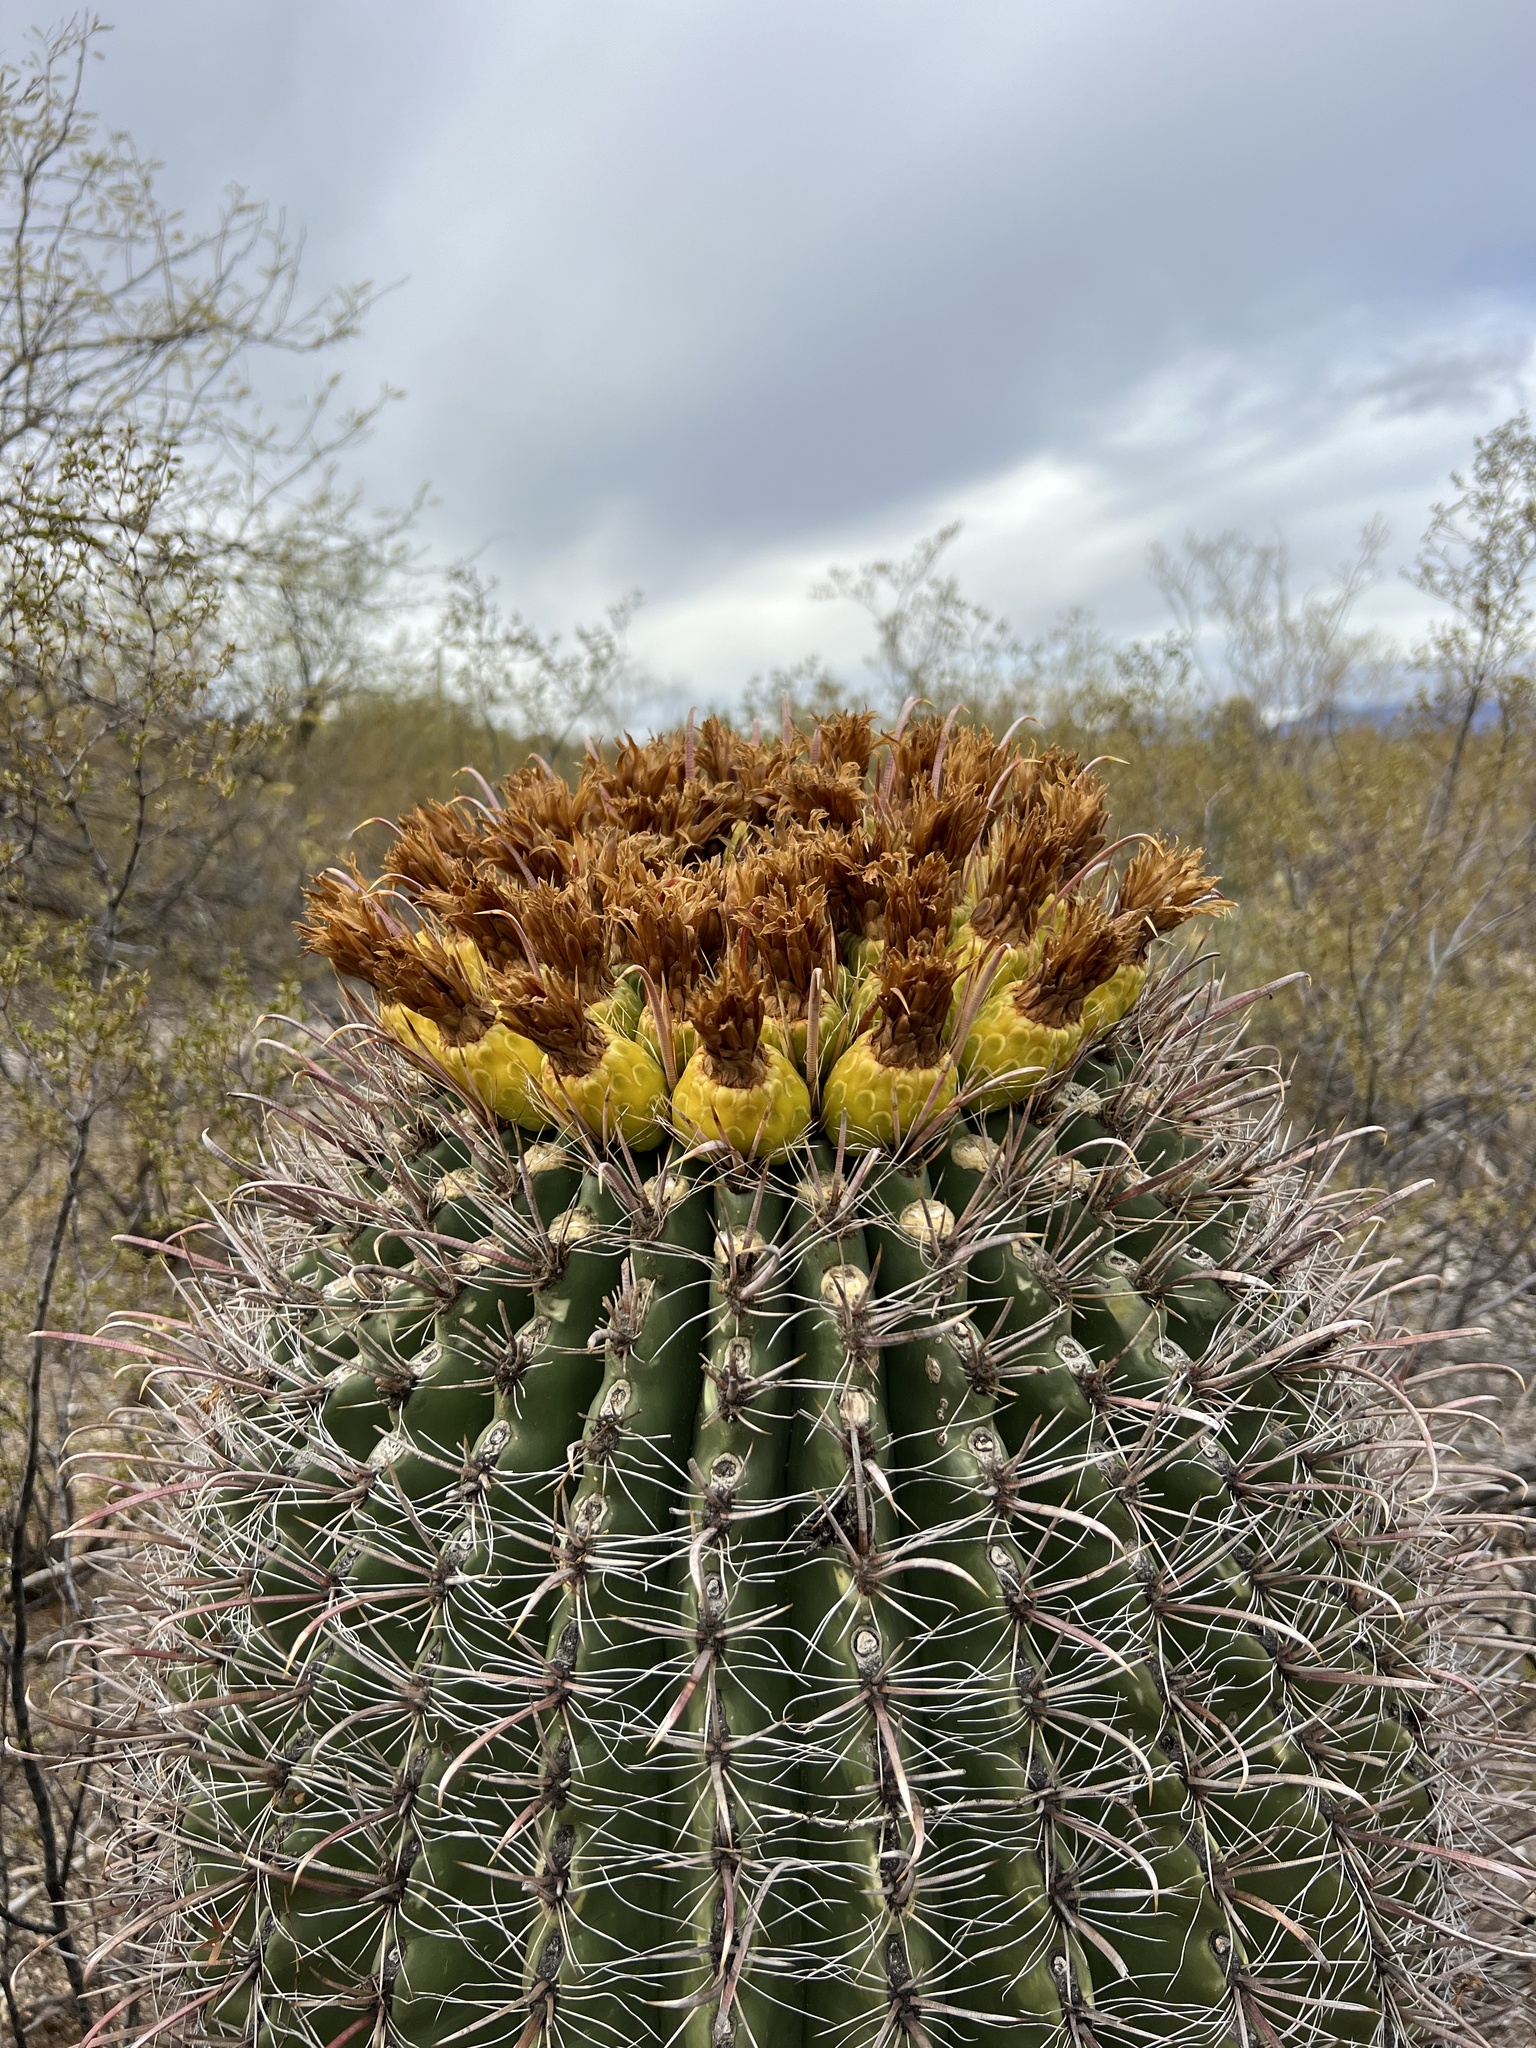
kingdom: Plantae
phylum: Tracheophyta
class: Magnoliopsida
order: Caryophyllales
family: Cactaceae
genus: Ferocactus
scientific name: Ferocactus wislizeni
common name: Candy barrel cactus
